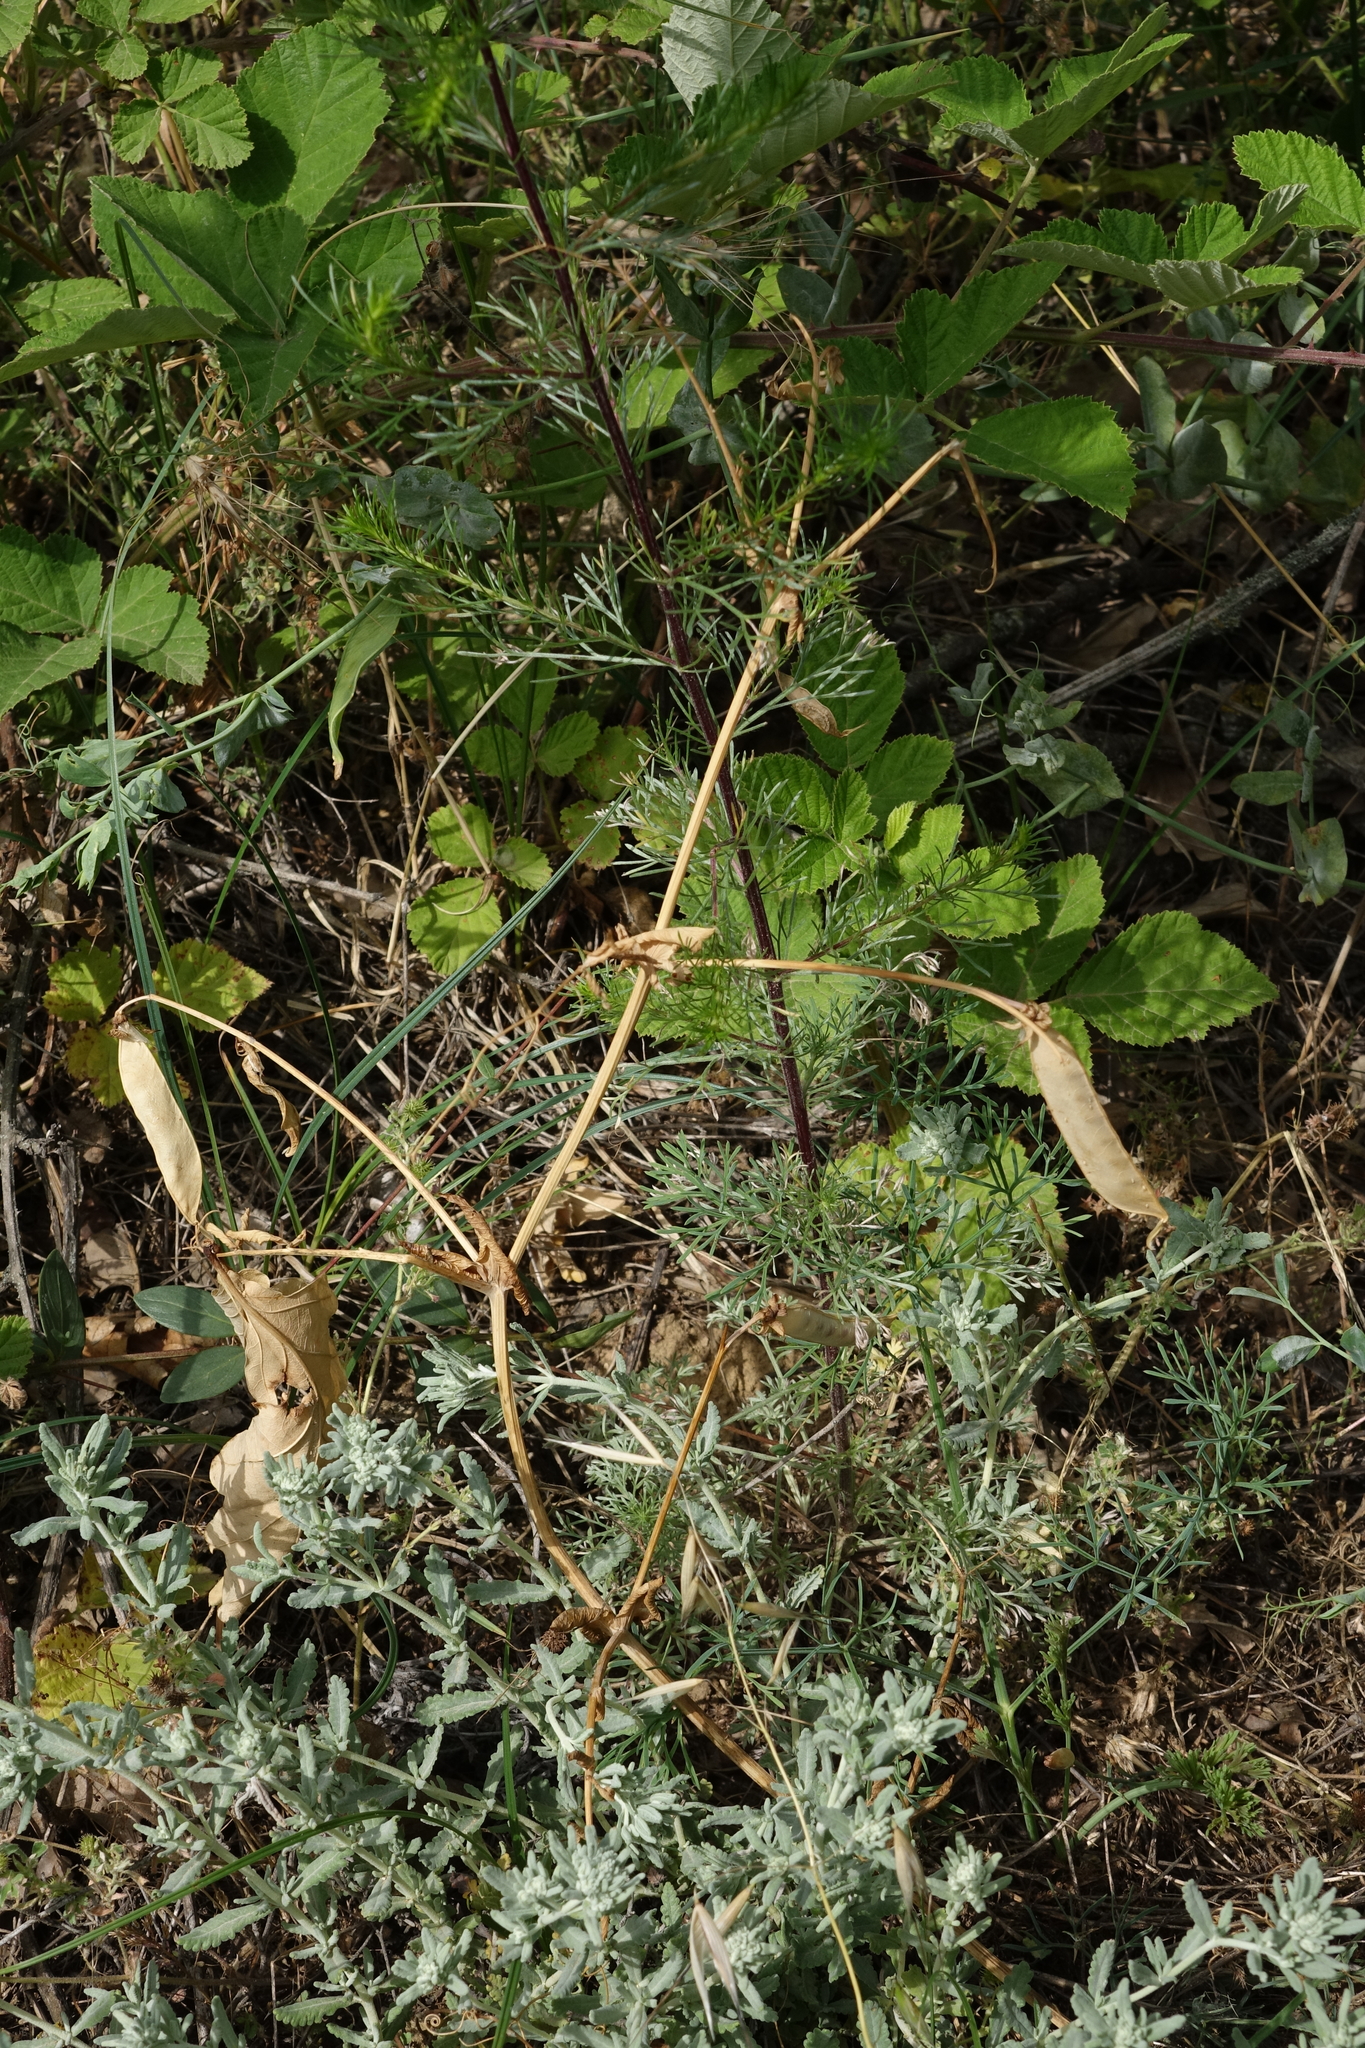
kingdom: Plantae
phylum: Tracheophyta
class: Magnoliopsida
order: Fabales
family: Fabaceae
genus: Lathyrus
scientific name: Lathyrus oleraceus
